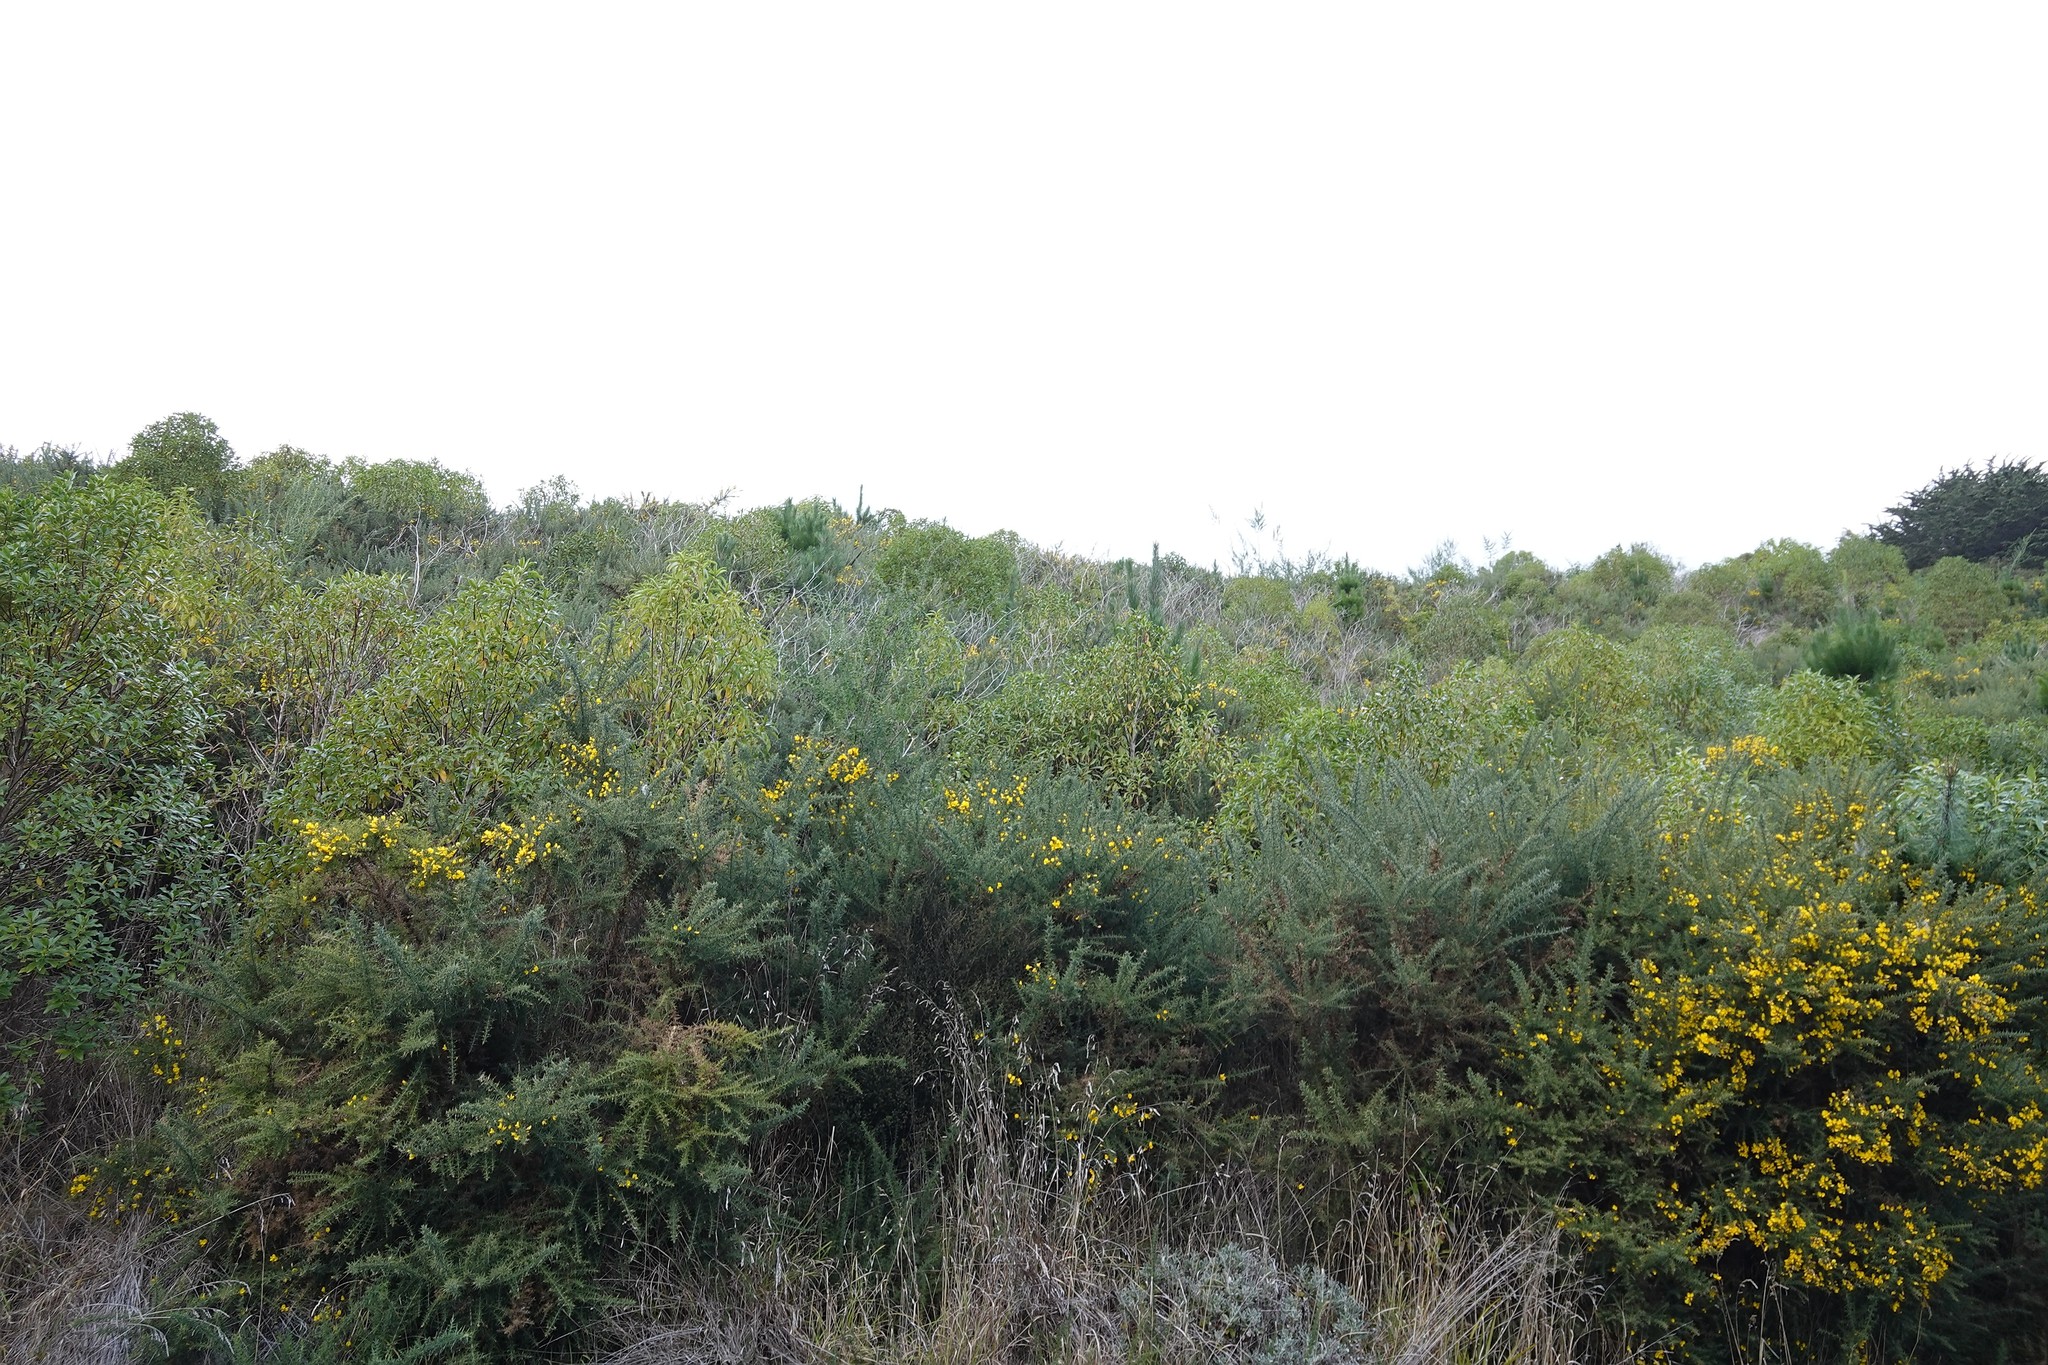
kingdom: Plantae
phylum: Tracheophyta
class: Magnoliopsida
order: Fabales
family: Fabaceae
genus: Ulex
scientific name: Ulex europaeus
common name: Common gorse
